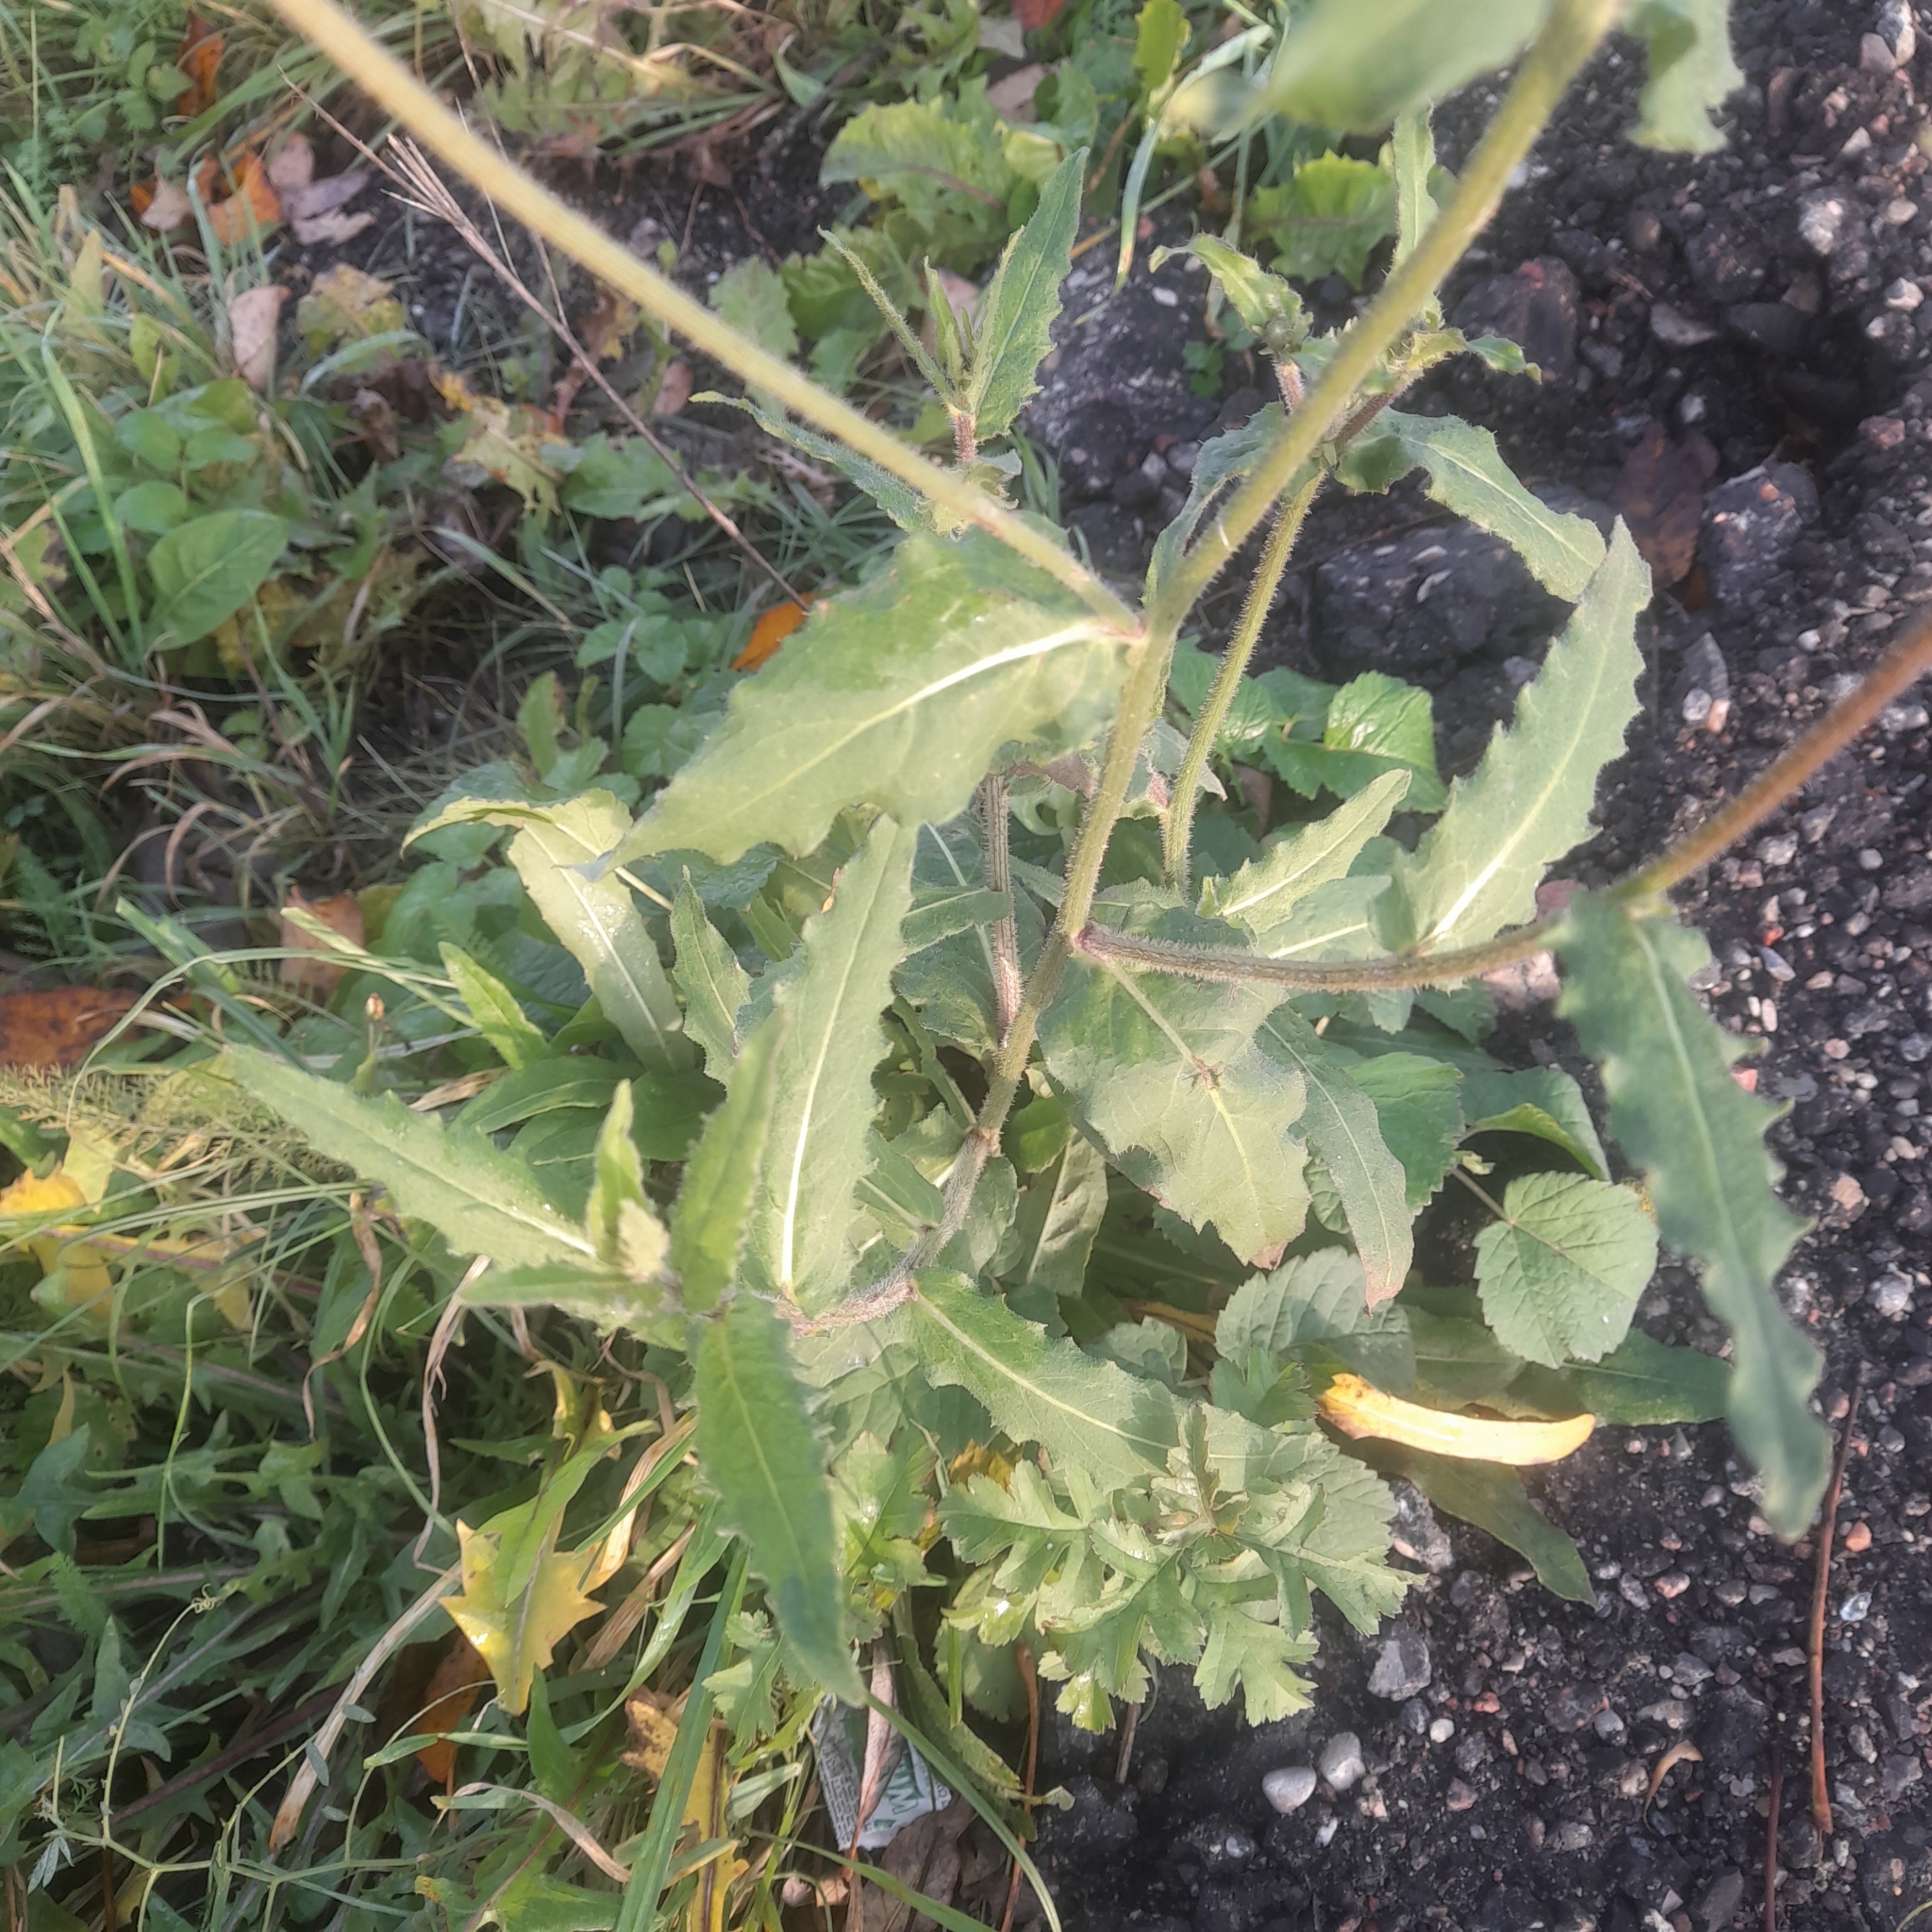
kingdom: Plantae
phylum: Tracheophyta
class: Magnoliopsida
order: Asterales
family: Asteraceae
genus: Picris
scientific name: Picris hieracioides
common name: Hawkweed oxtongue
